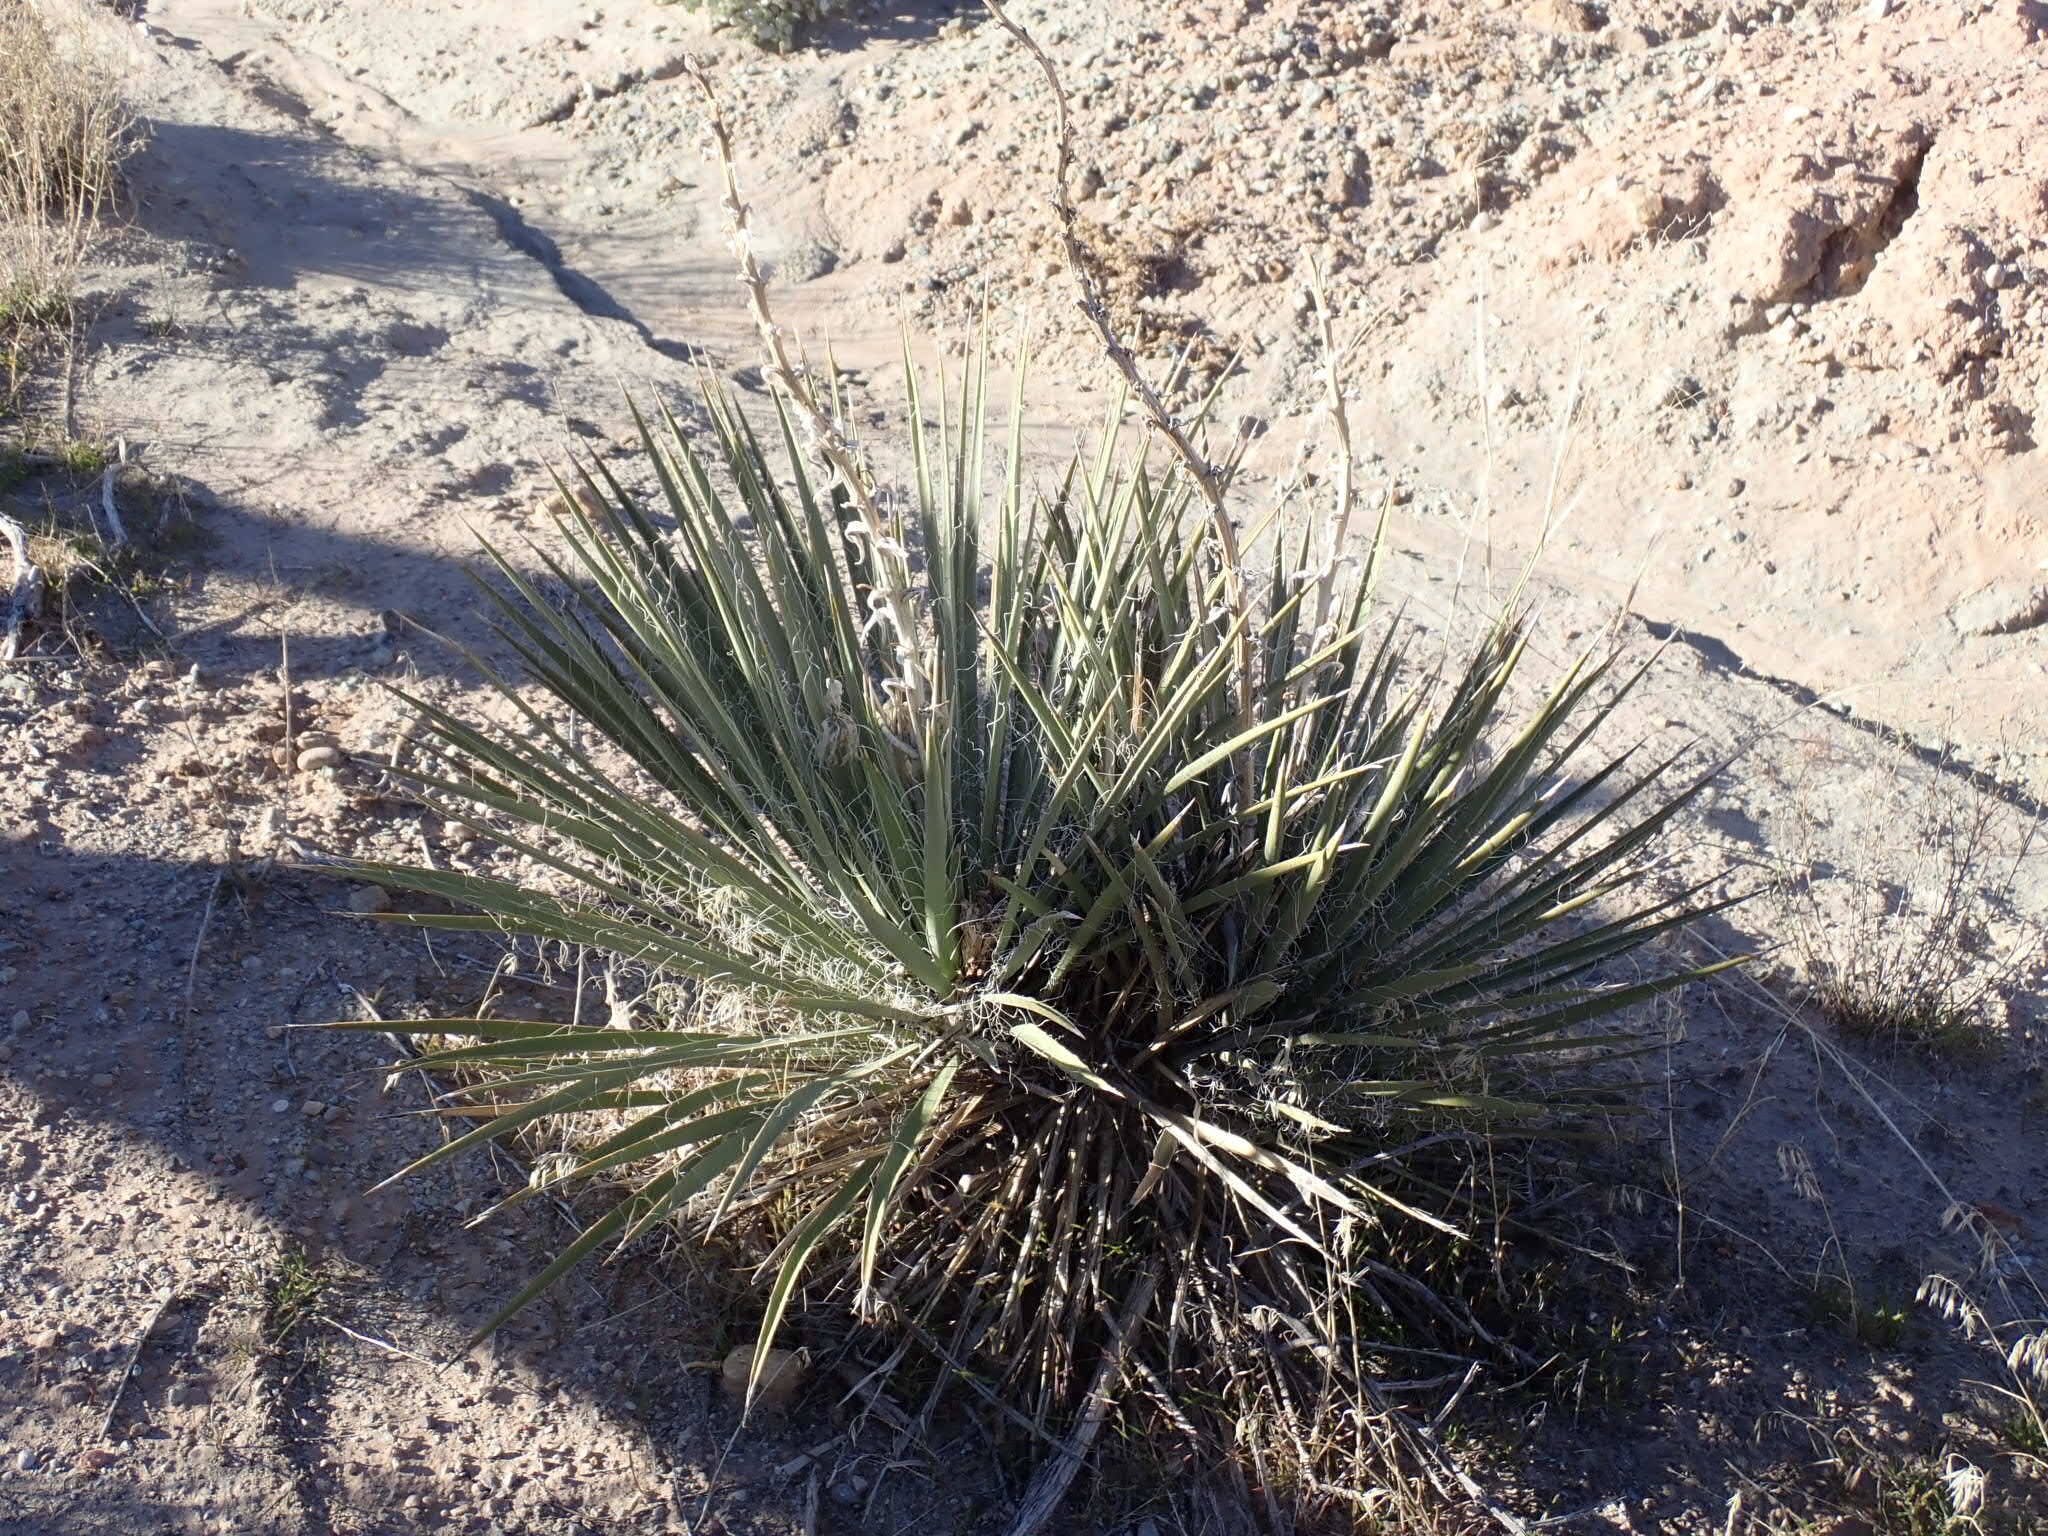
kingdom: Plantae
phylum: Tracheophyta
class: Liliopsida
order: Asparagales
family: Asparagaceae
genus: Yucca
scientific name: Yucca angustissima
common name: Narrowleaf yucca
